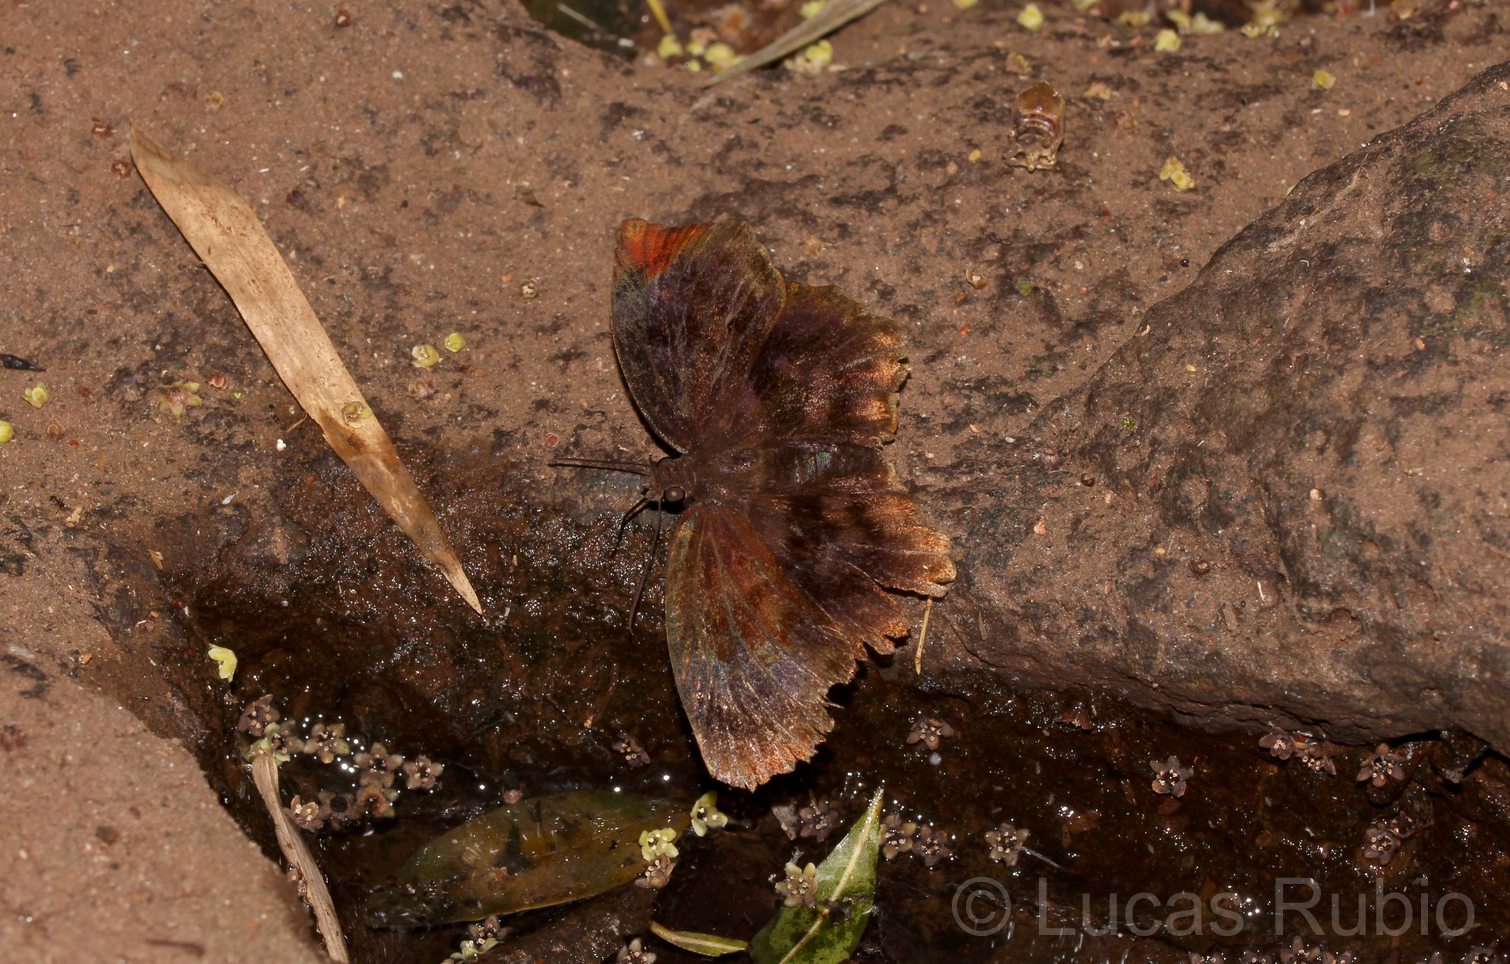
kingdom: Animalia
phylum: Arthropoda
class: Insecta
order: Lepidoptera
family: Hesperiidae
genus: Achlyodes
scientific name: Achlyodes busirus
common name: Giant sicklewing
